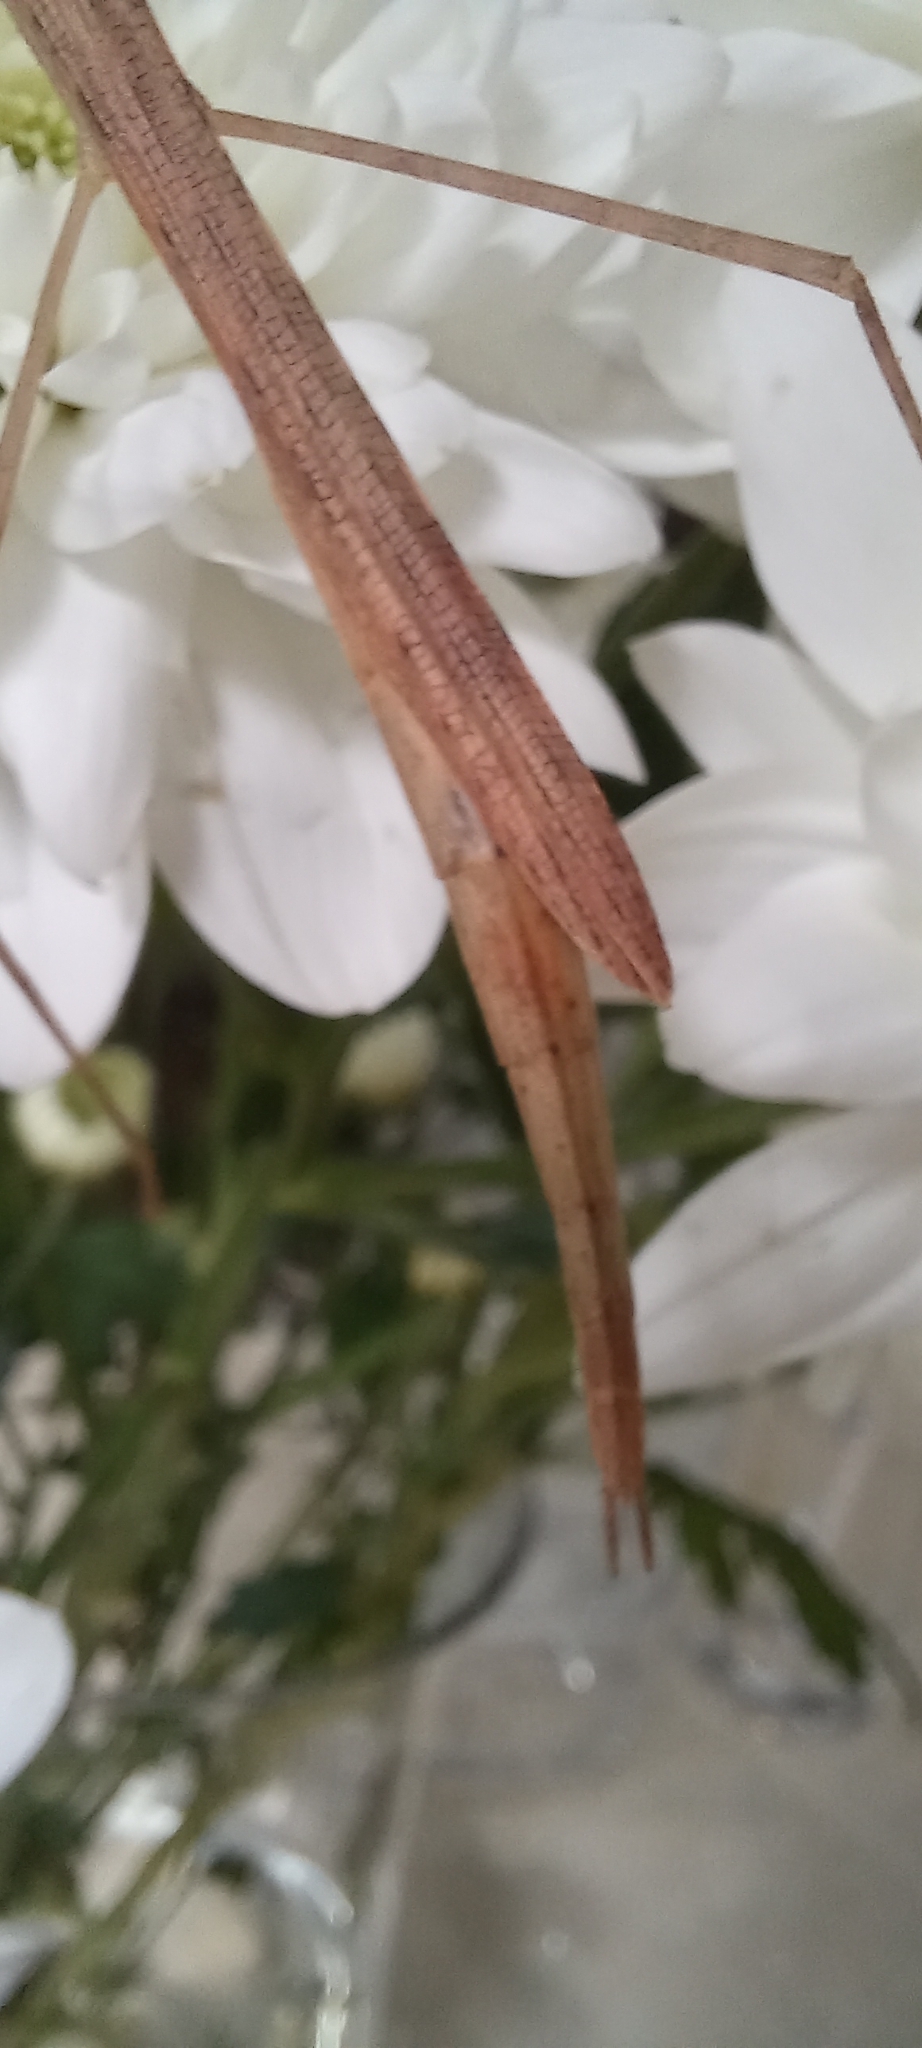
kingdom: Animalia
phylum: Arthropoda
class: Insecta
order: Phasmida
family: Lonchodidae
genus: Sipyloidea
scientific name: Sipyloidea sipylus
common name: Madagascan stick insect
